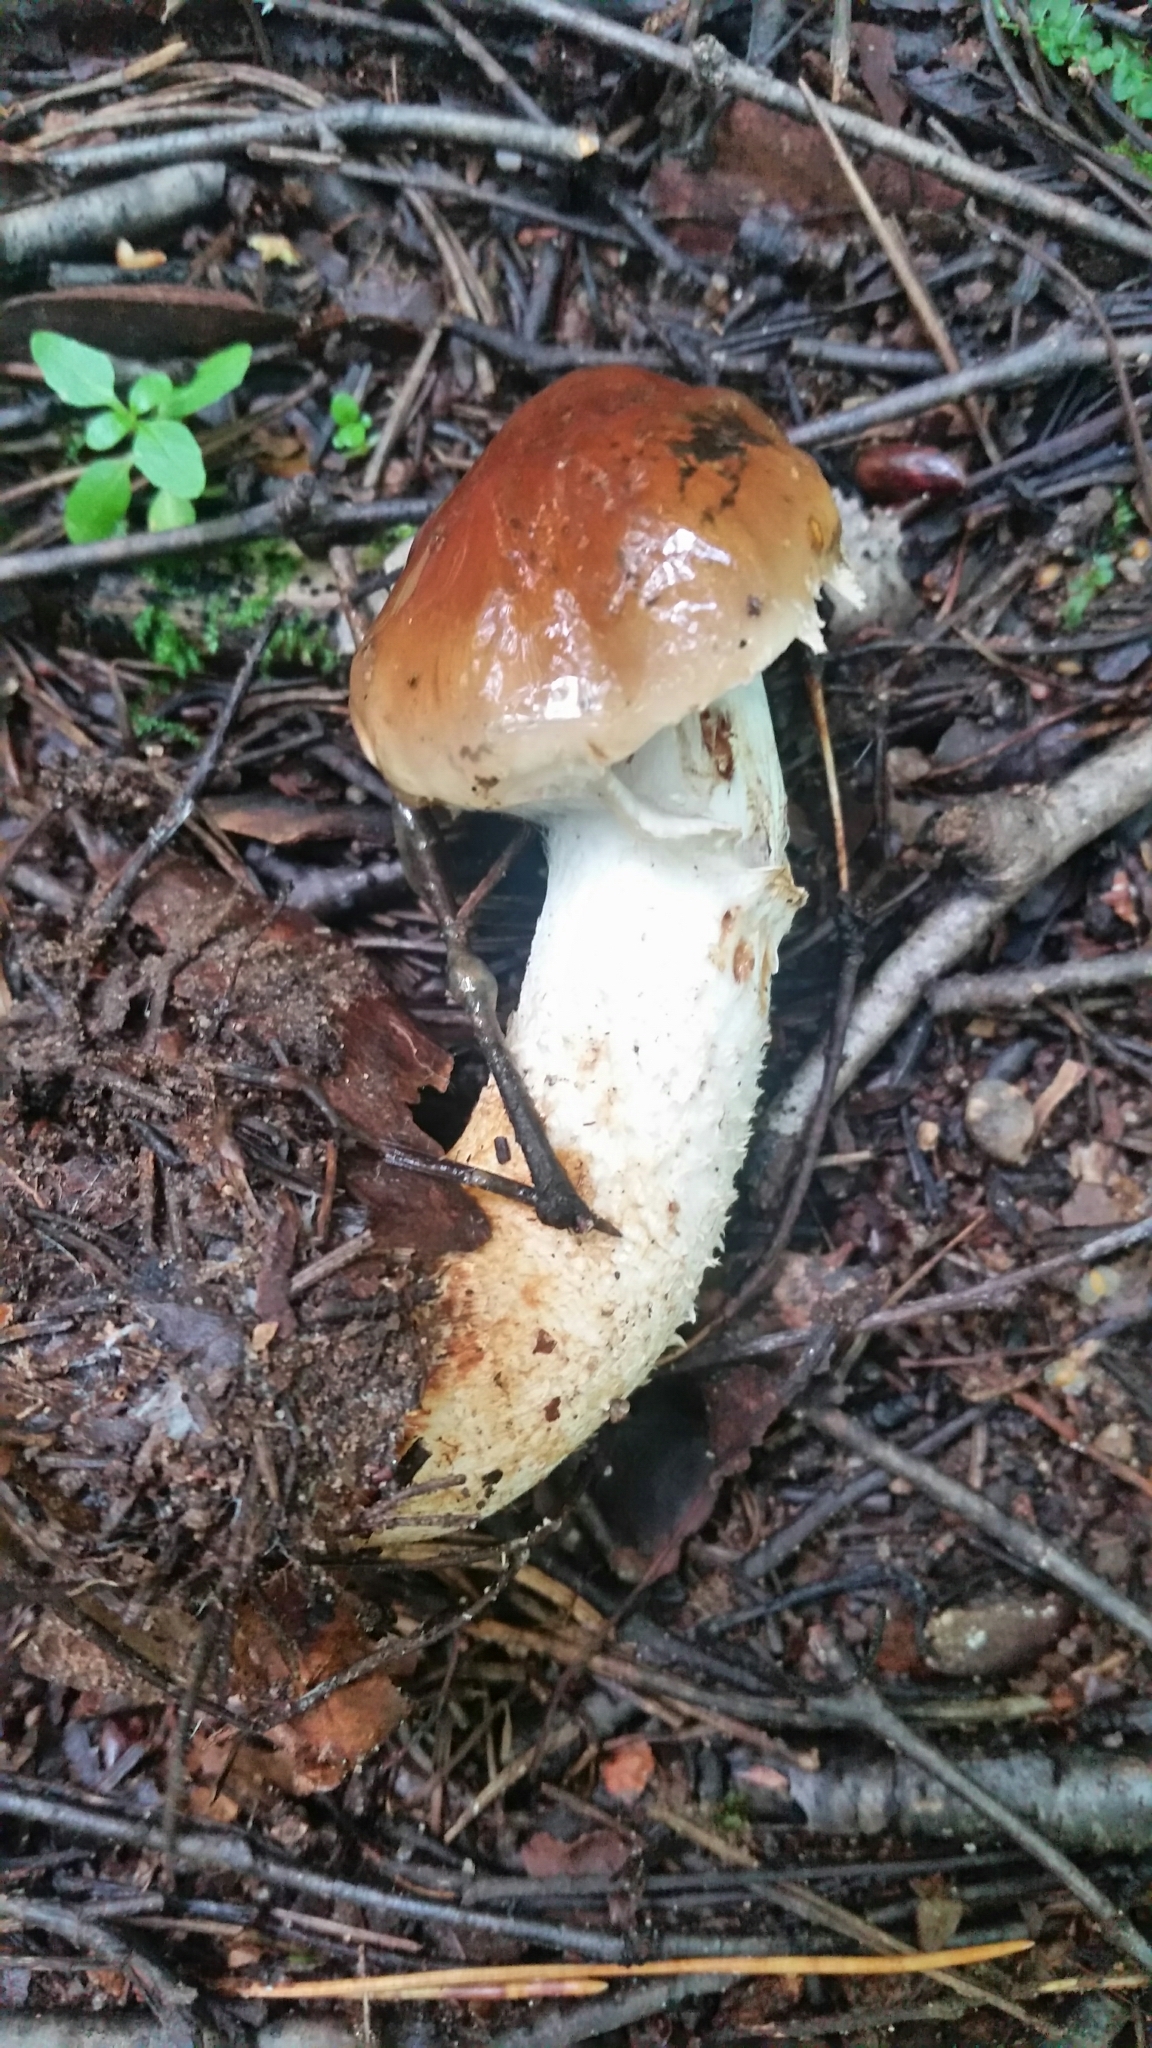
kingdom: Fungi
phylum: Basidiomycota
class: Agaricomycetes
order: Agaricales
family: Strophariaceae
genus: Pholiota
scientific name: Pholiota spumosa
